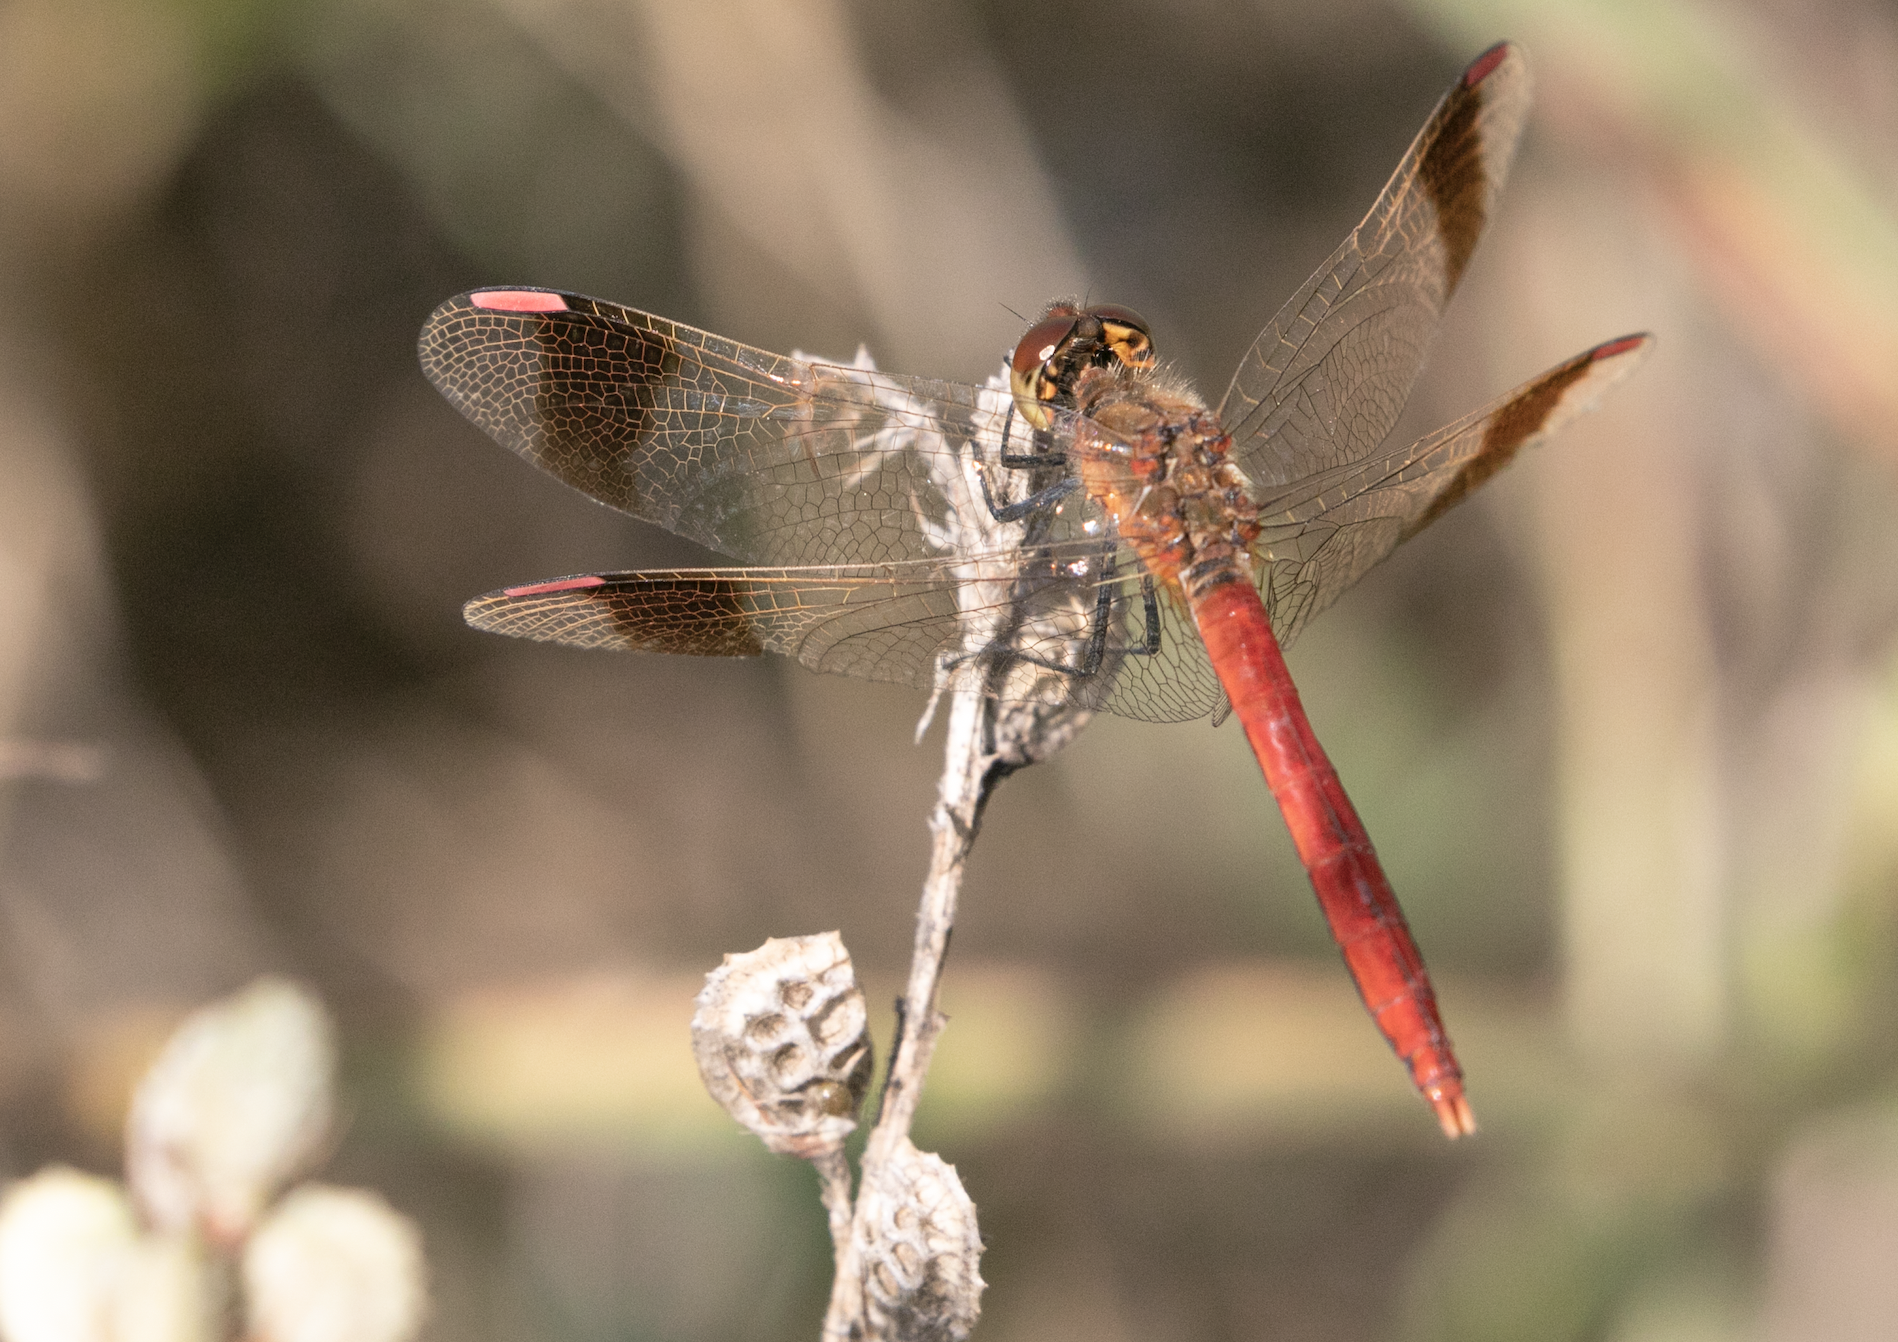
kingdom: Animalia
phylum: Arthropoda
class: Insecta
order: Odonata
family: Libellulidae
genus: Sympetrum
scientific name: Sympetrum pedemontanum
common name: Banded darter
